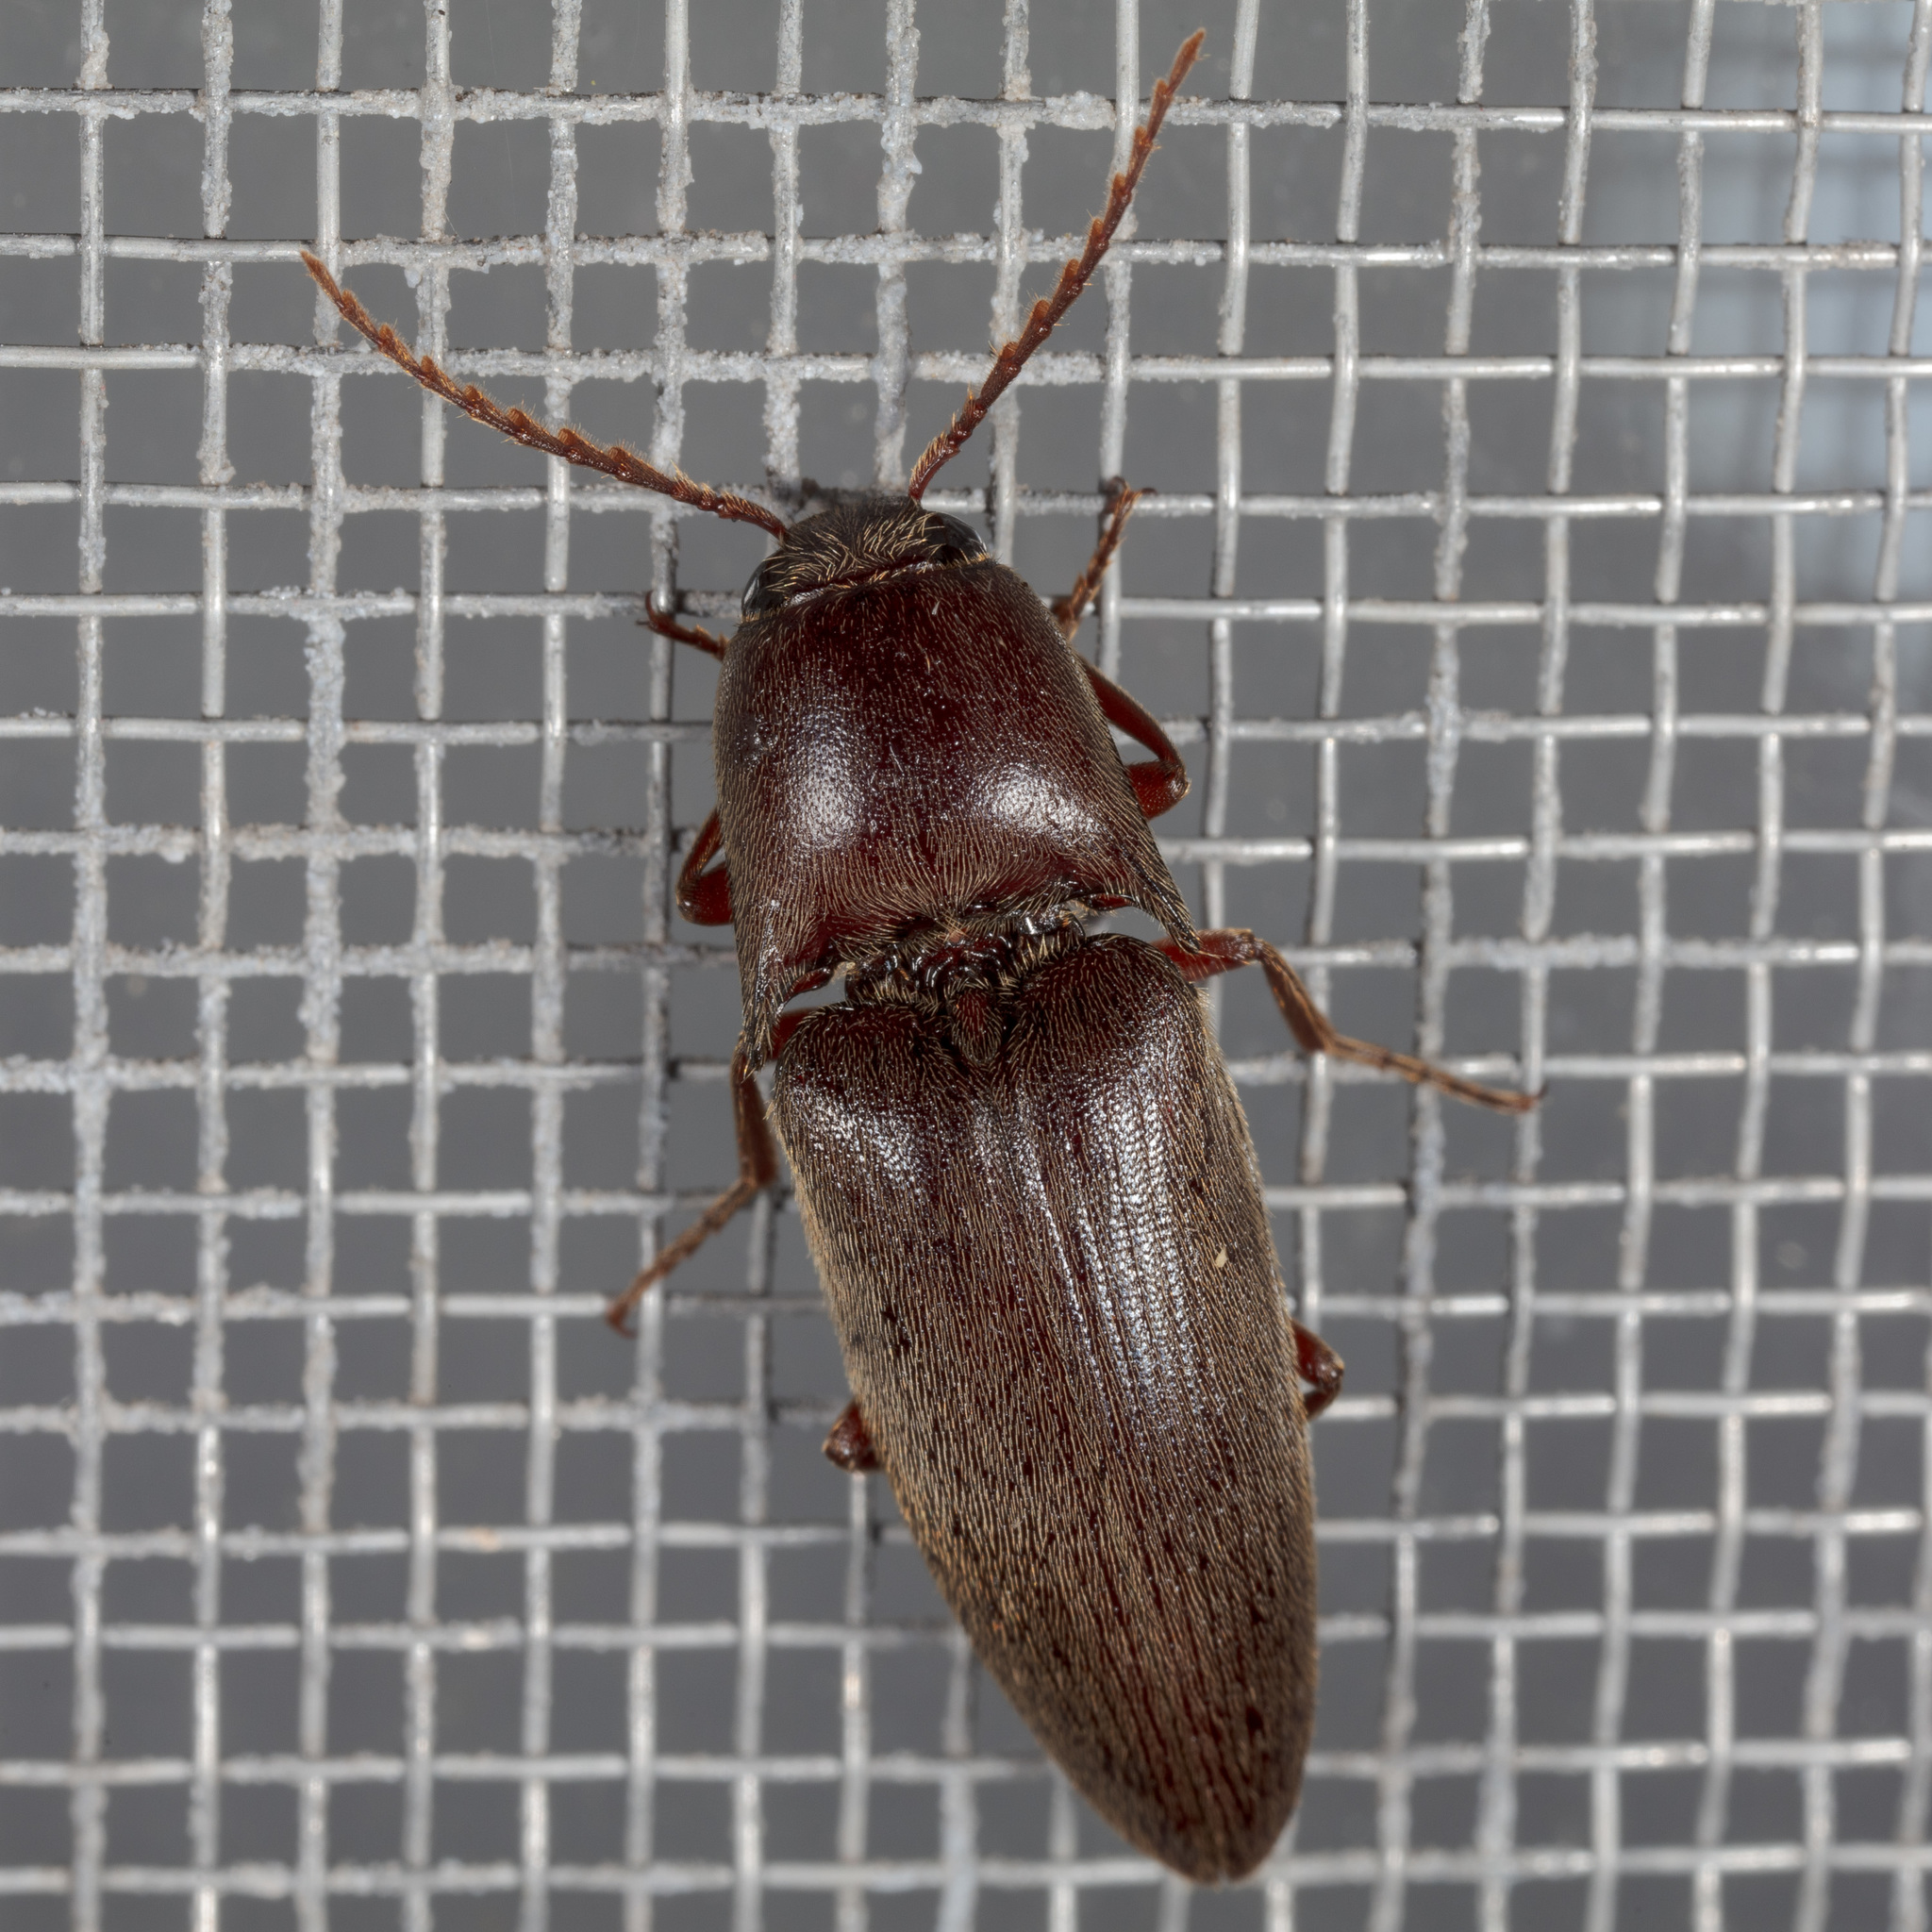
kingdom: Animalia
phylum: Arthropoda
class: Insecta
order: Coleoptera
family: Elateridae
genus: Diplostethus
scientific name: Diplostethus
